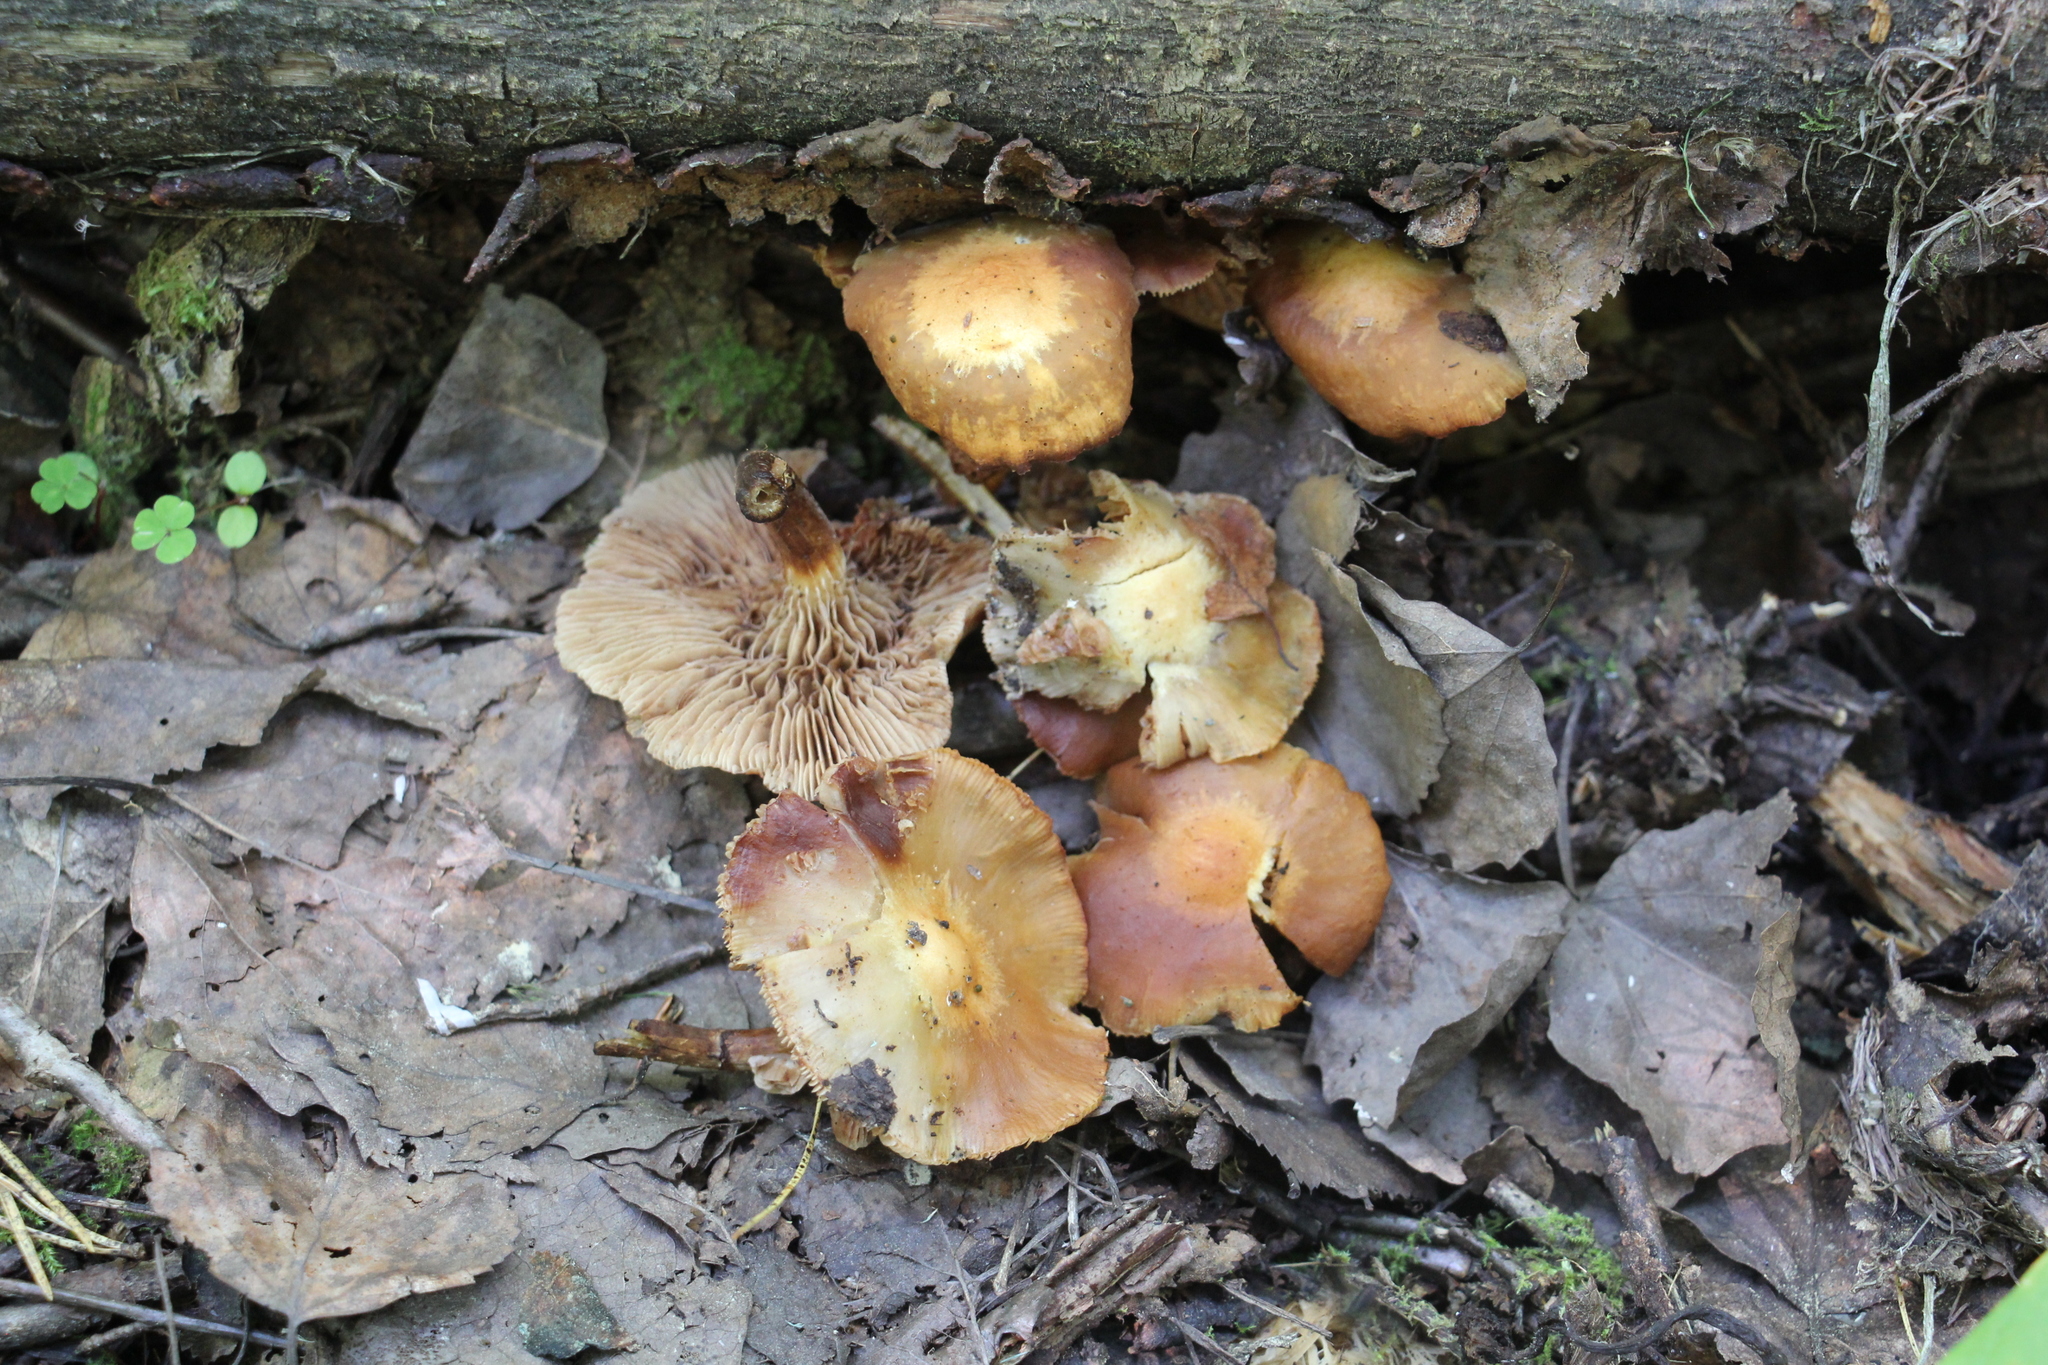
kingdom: Fungi
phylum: Basidiomycota
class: Agaricomycetes
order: Agaricales
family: Strophariaceae
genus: Kuehneromyces
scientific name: Kuehneromyces mutabilis
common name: Sheathed woodtuft
